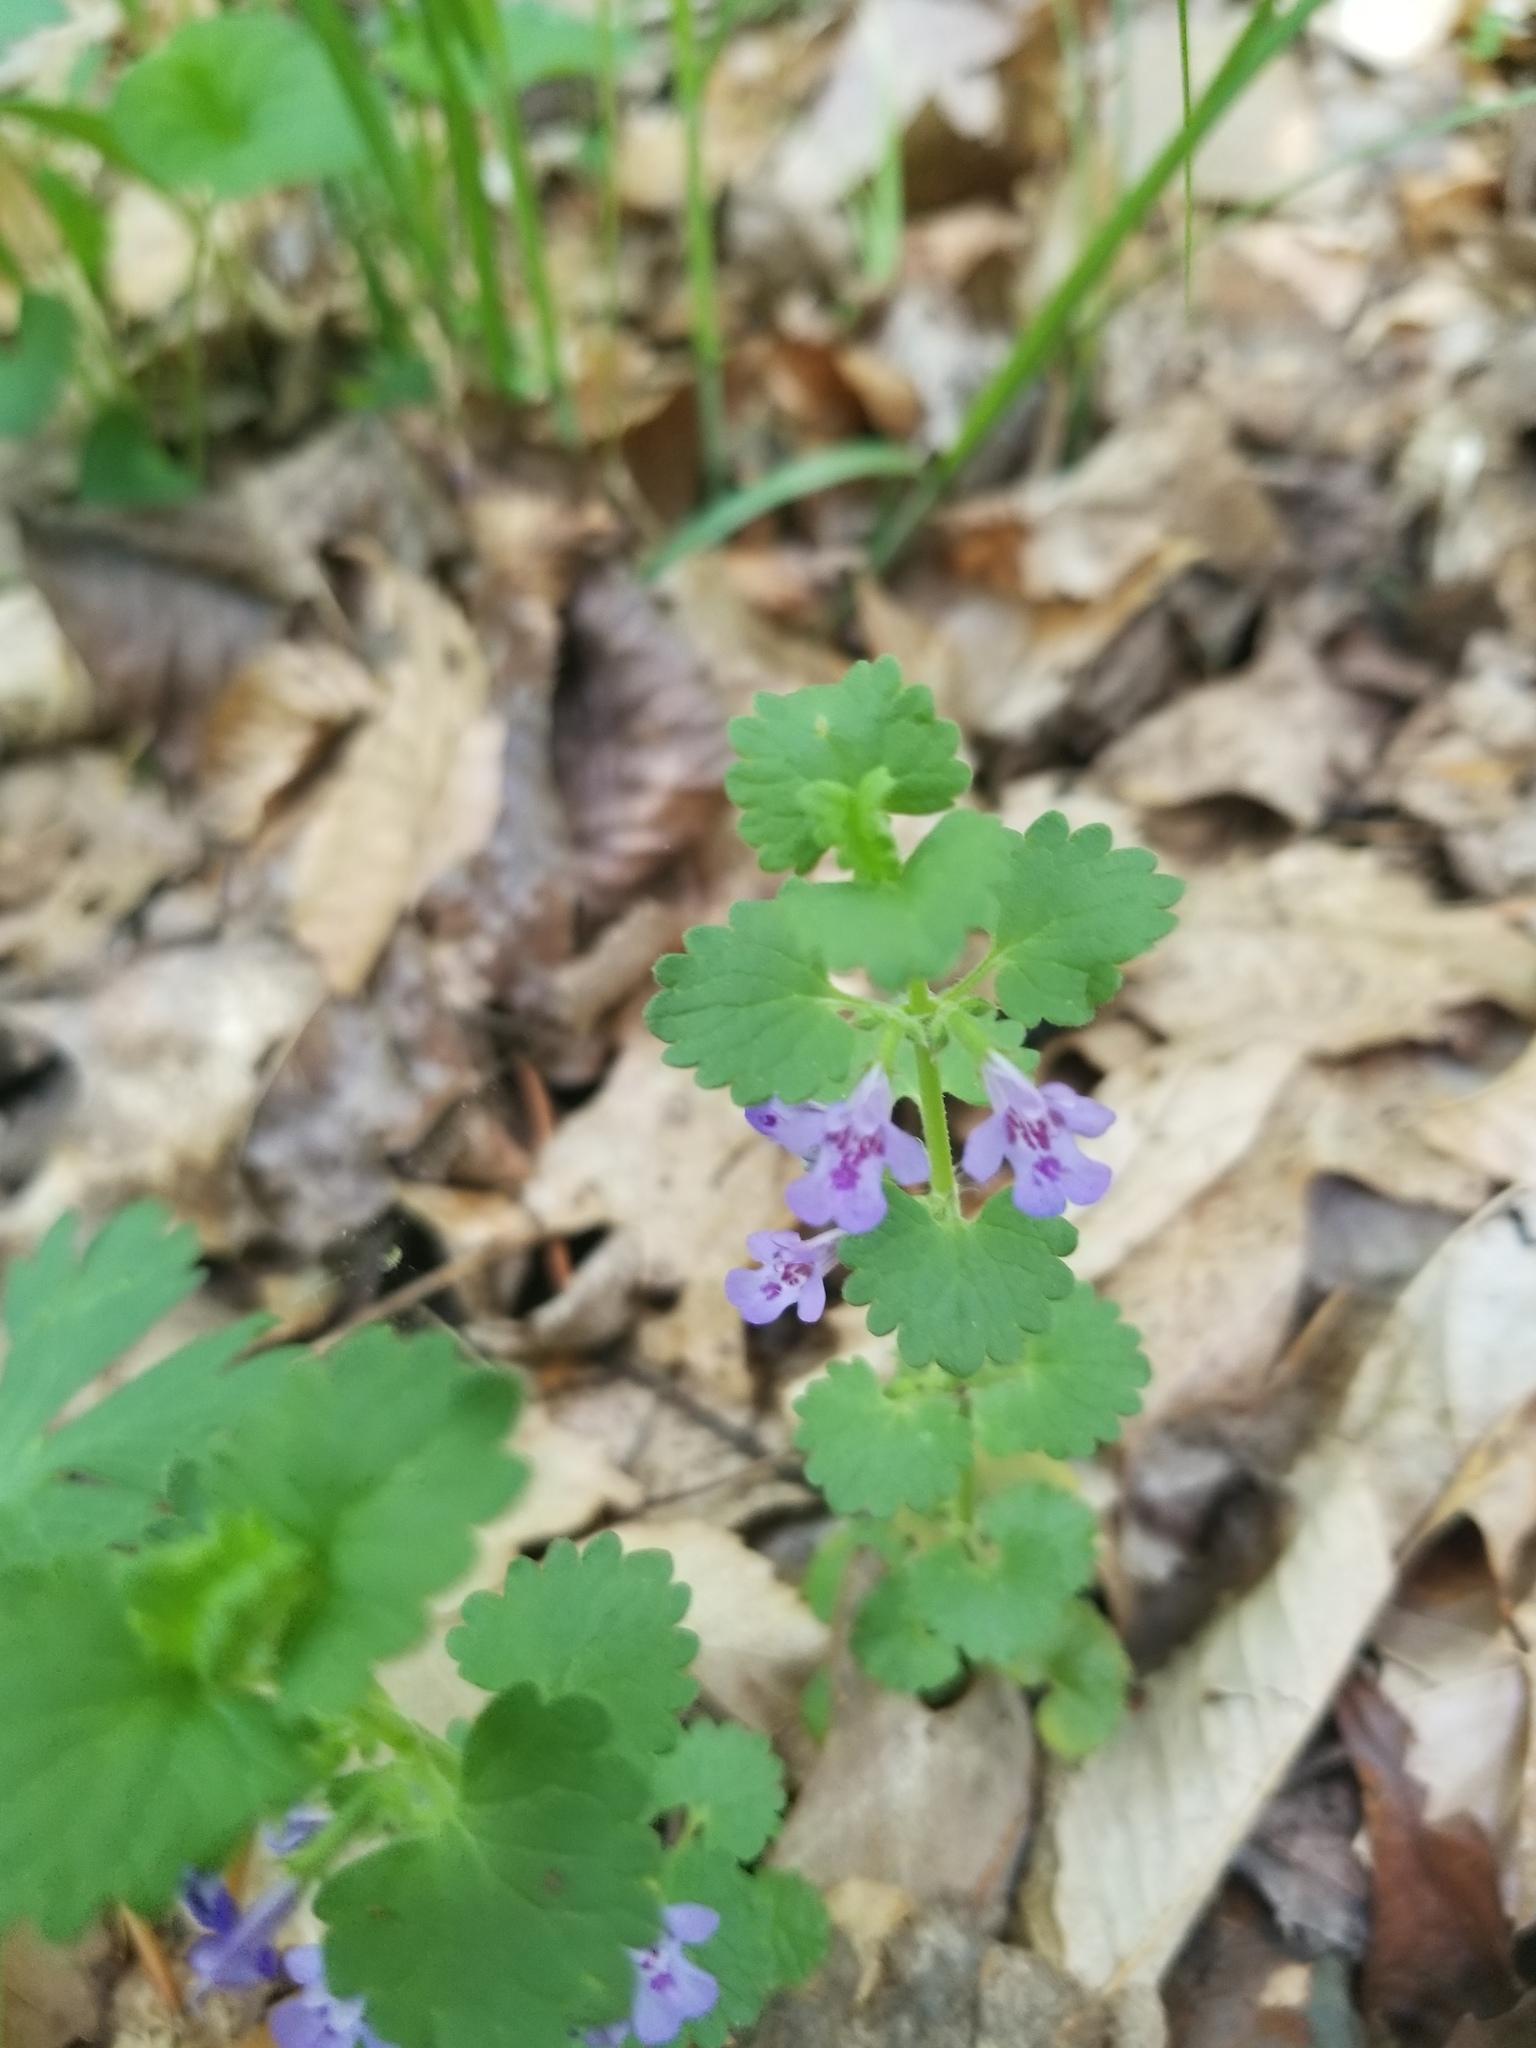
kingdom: Plantae
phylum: Tracheophyta
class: Magnoliopsida
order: Lamiales
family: Lamiaceae
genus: Glechoma
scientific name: Glechoma hederacea
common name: Ground ivy
